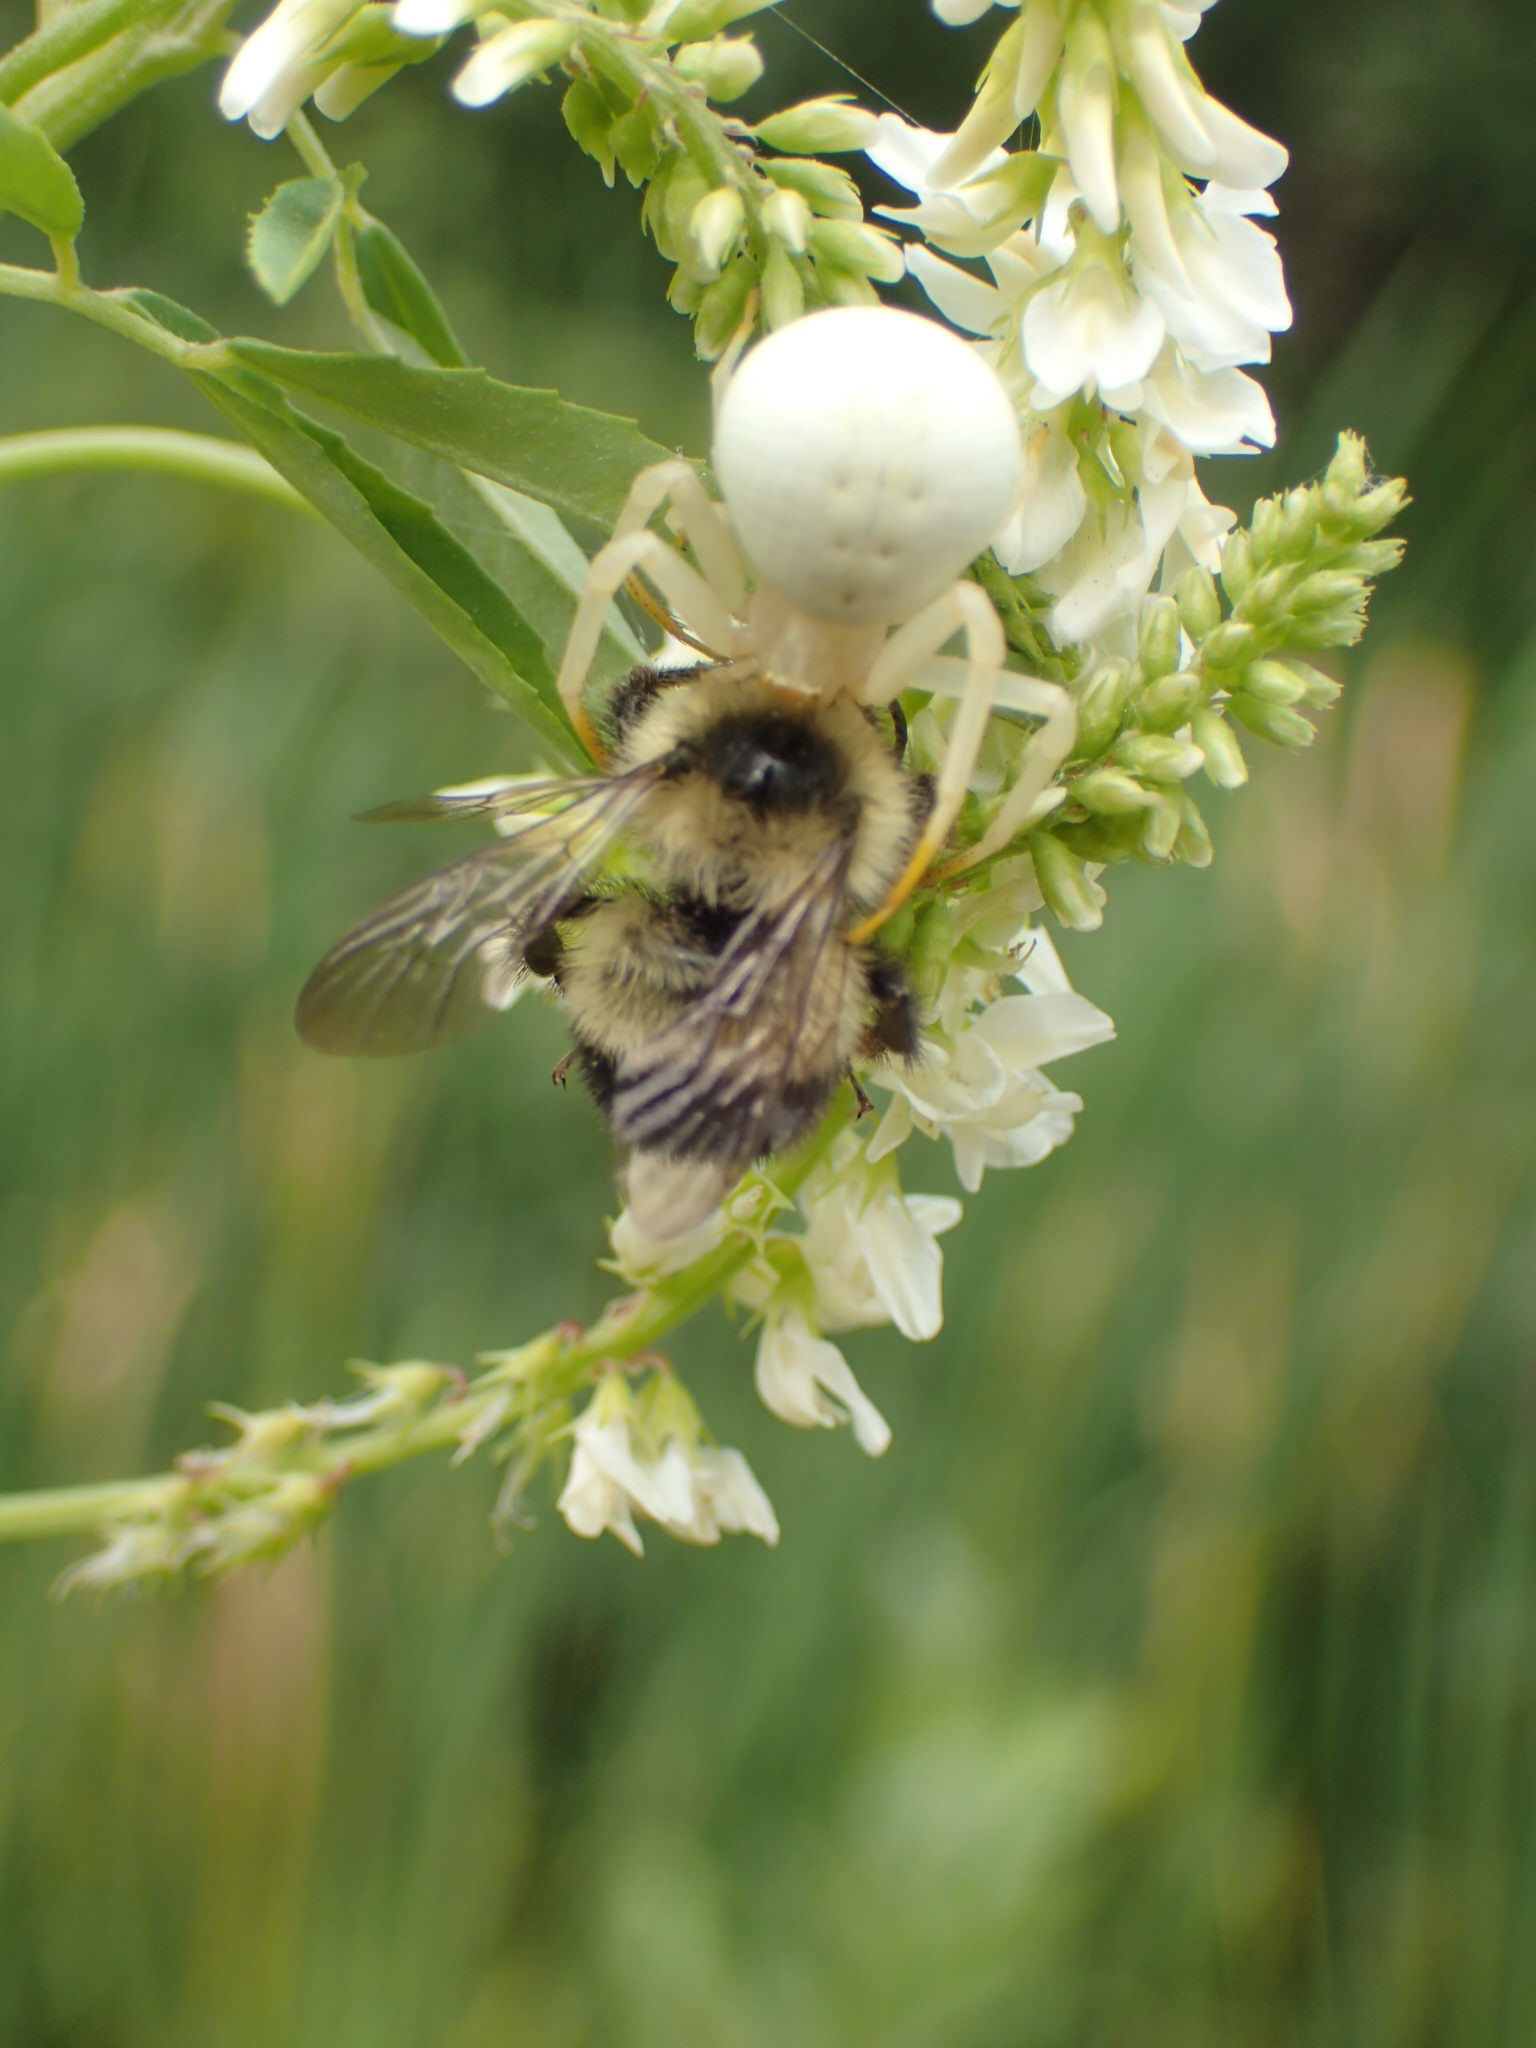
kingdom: Animalia
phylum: Arthropoda
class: Arachnida
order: Araneae
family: Thomisidae
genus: Misumena
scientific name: Misumena vatia
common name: Goldenrod crab spider
